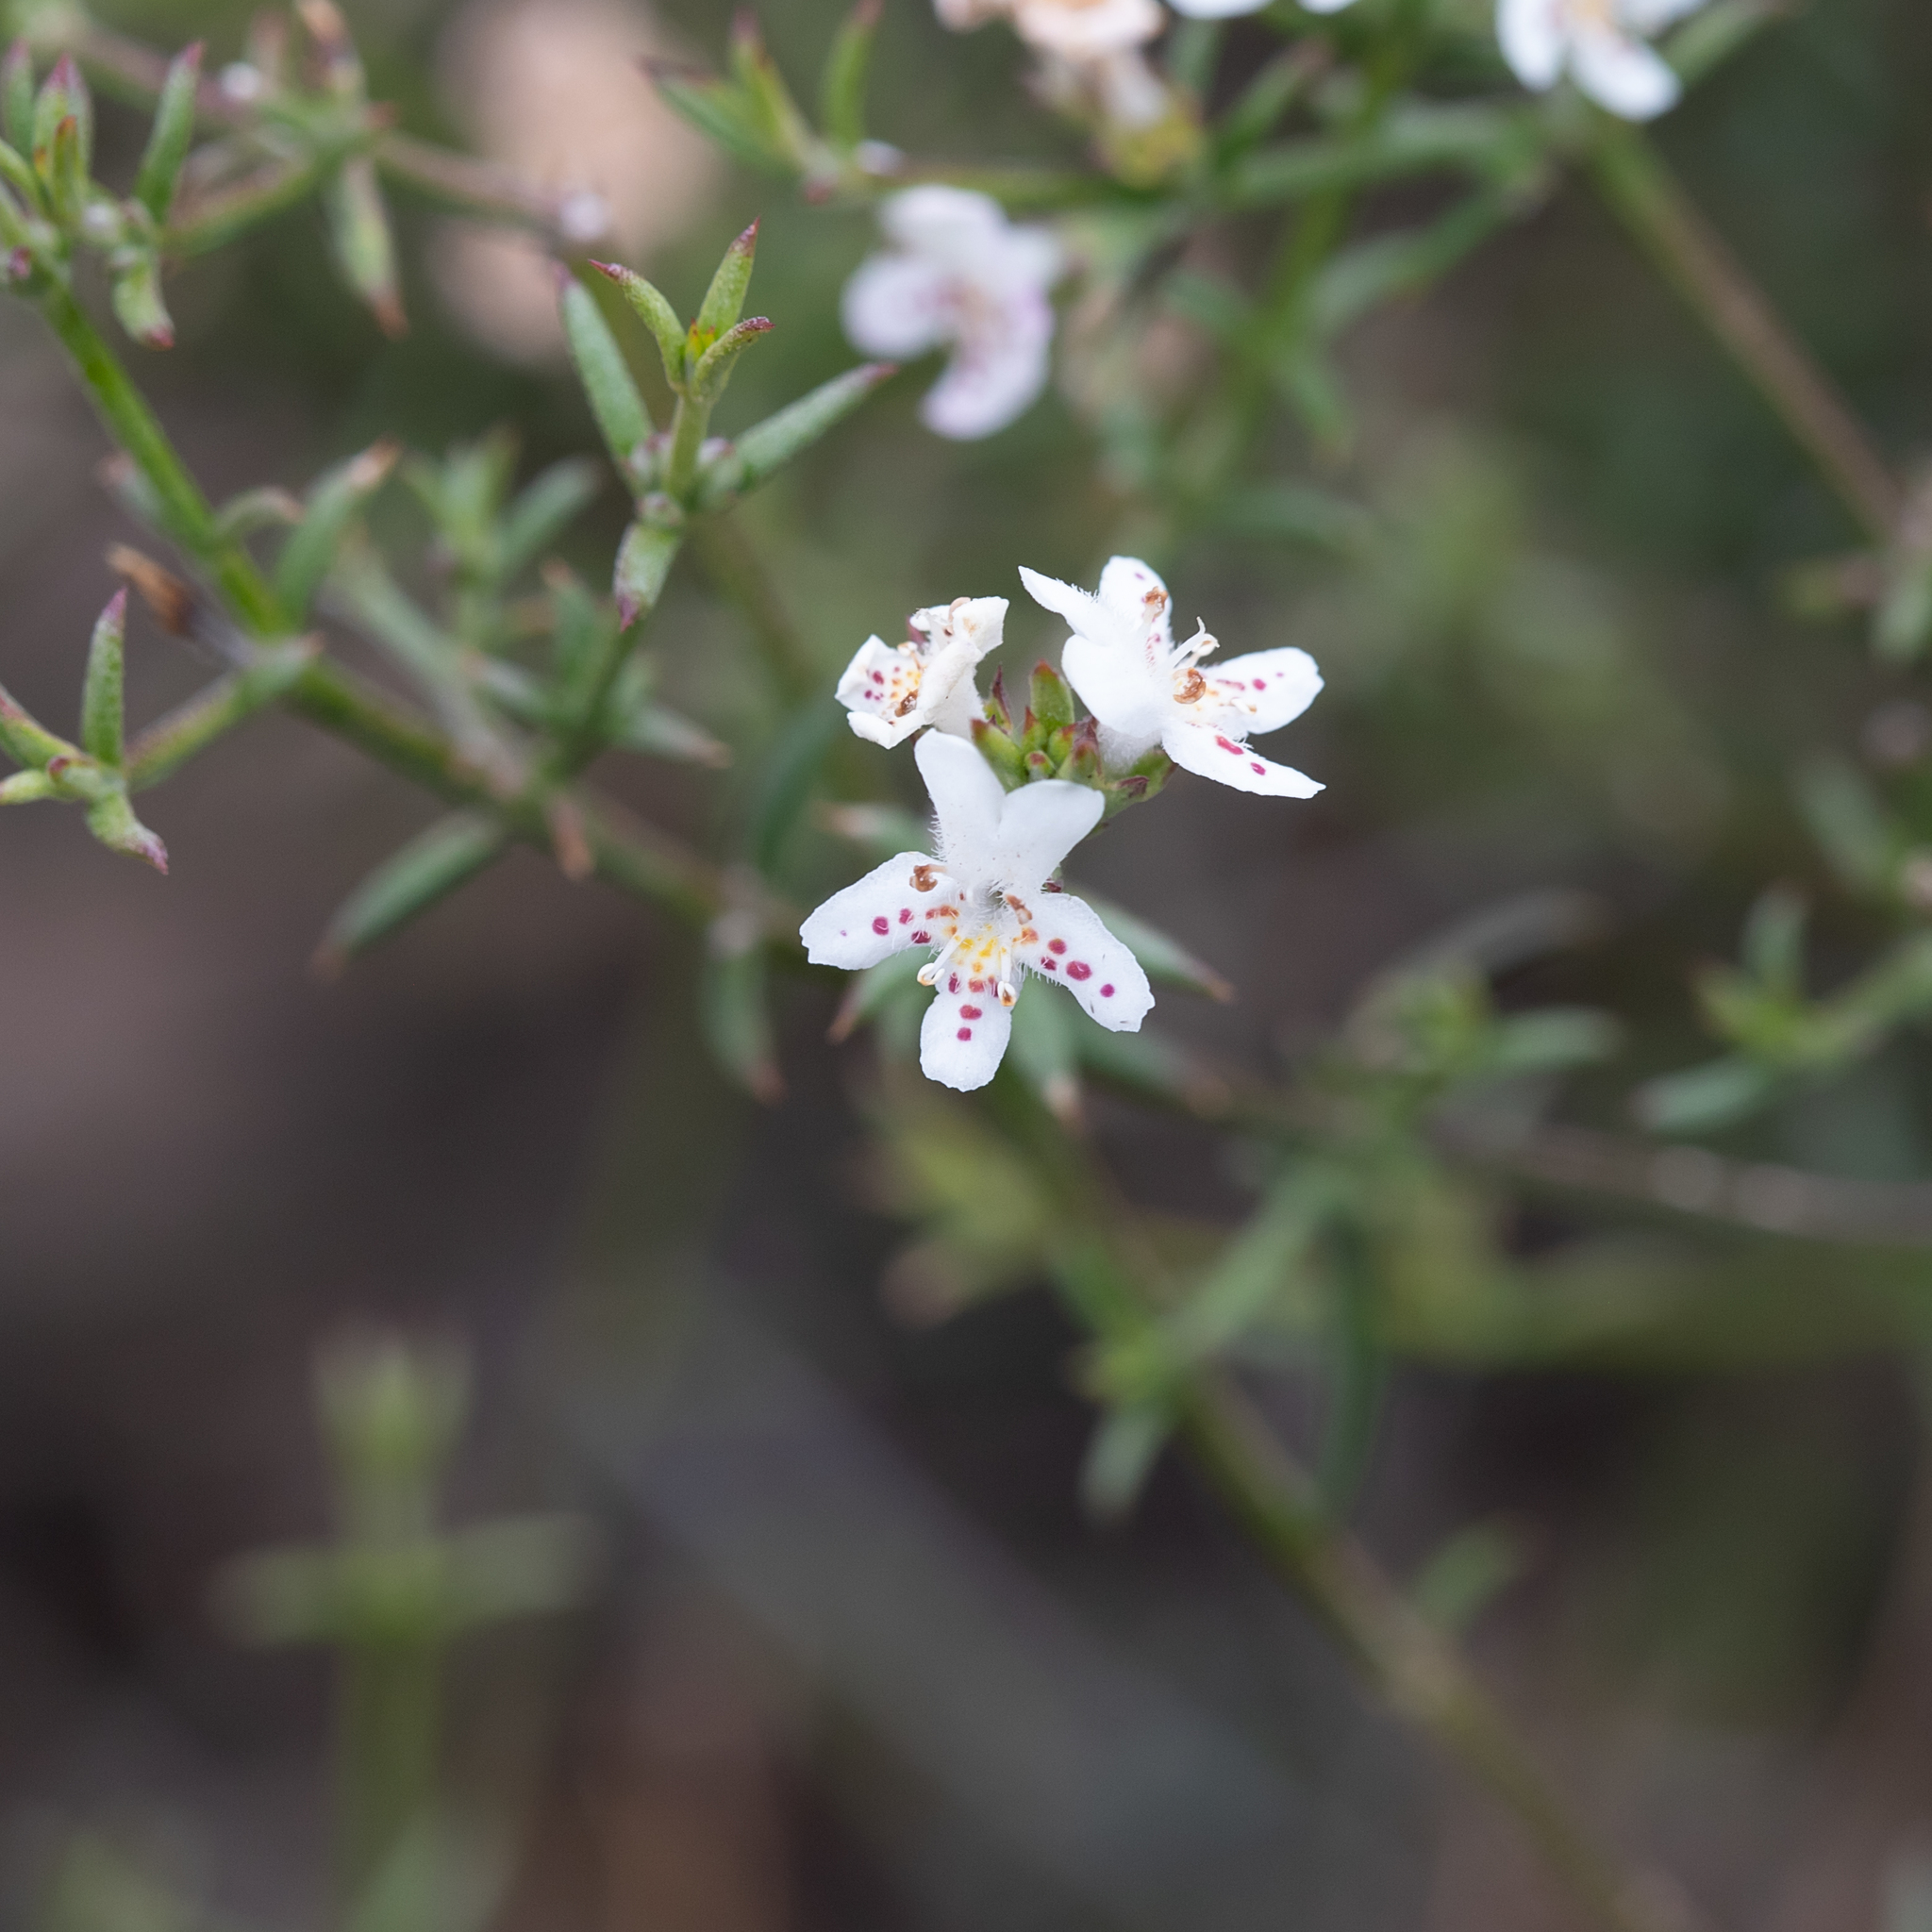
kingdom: Plantae
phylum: Tracheophyta
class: Magnoliopsida
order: Lamiales
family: Lamiaceae
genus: Westringia
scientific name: Westringia rigida
